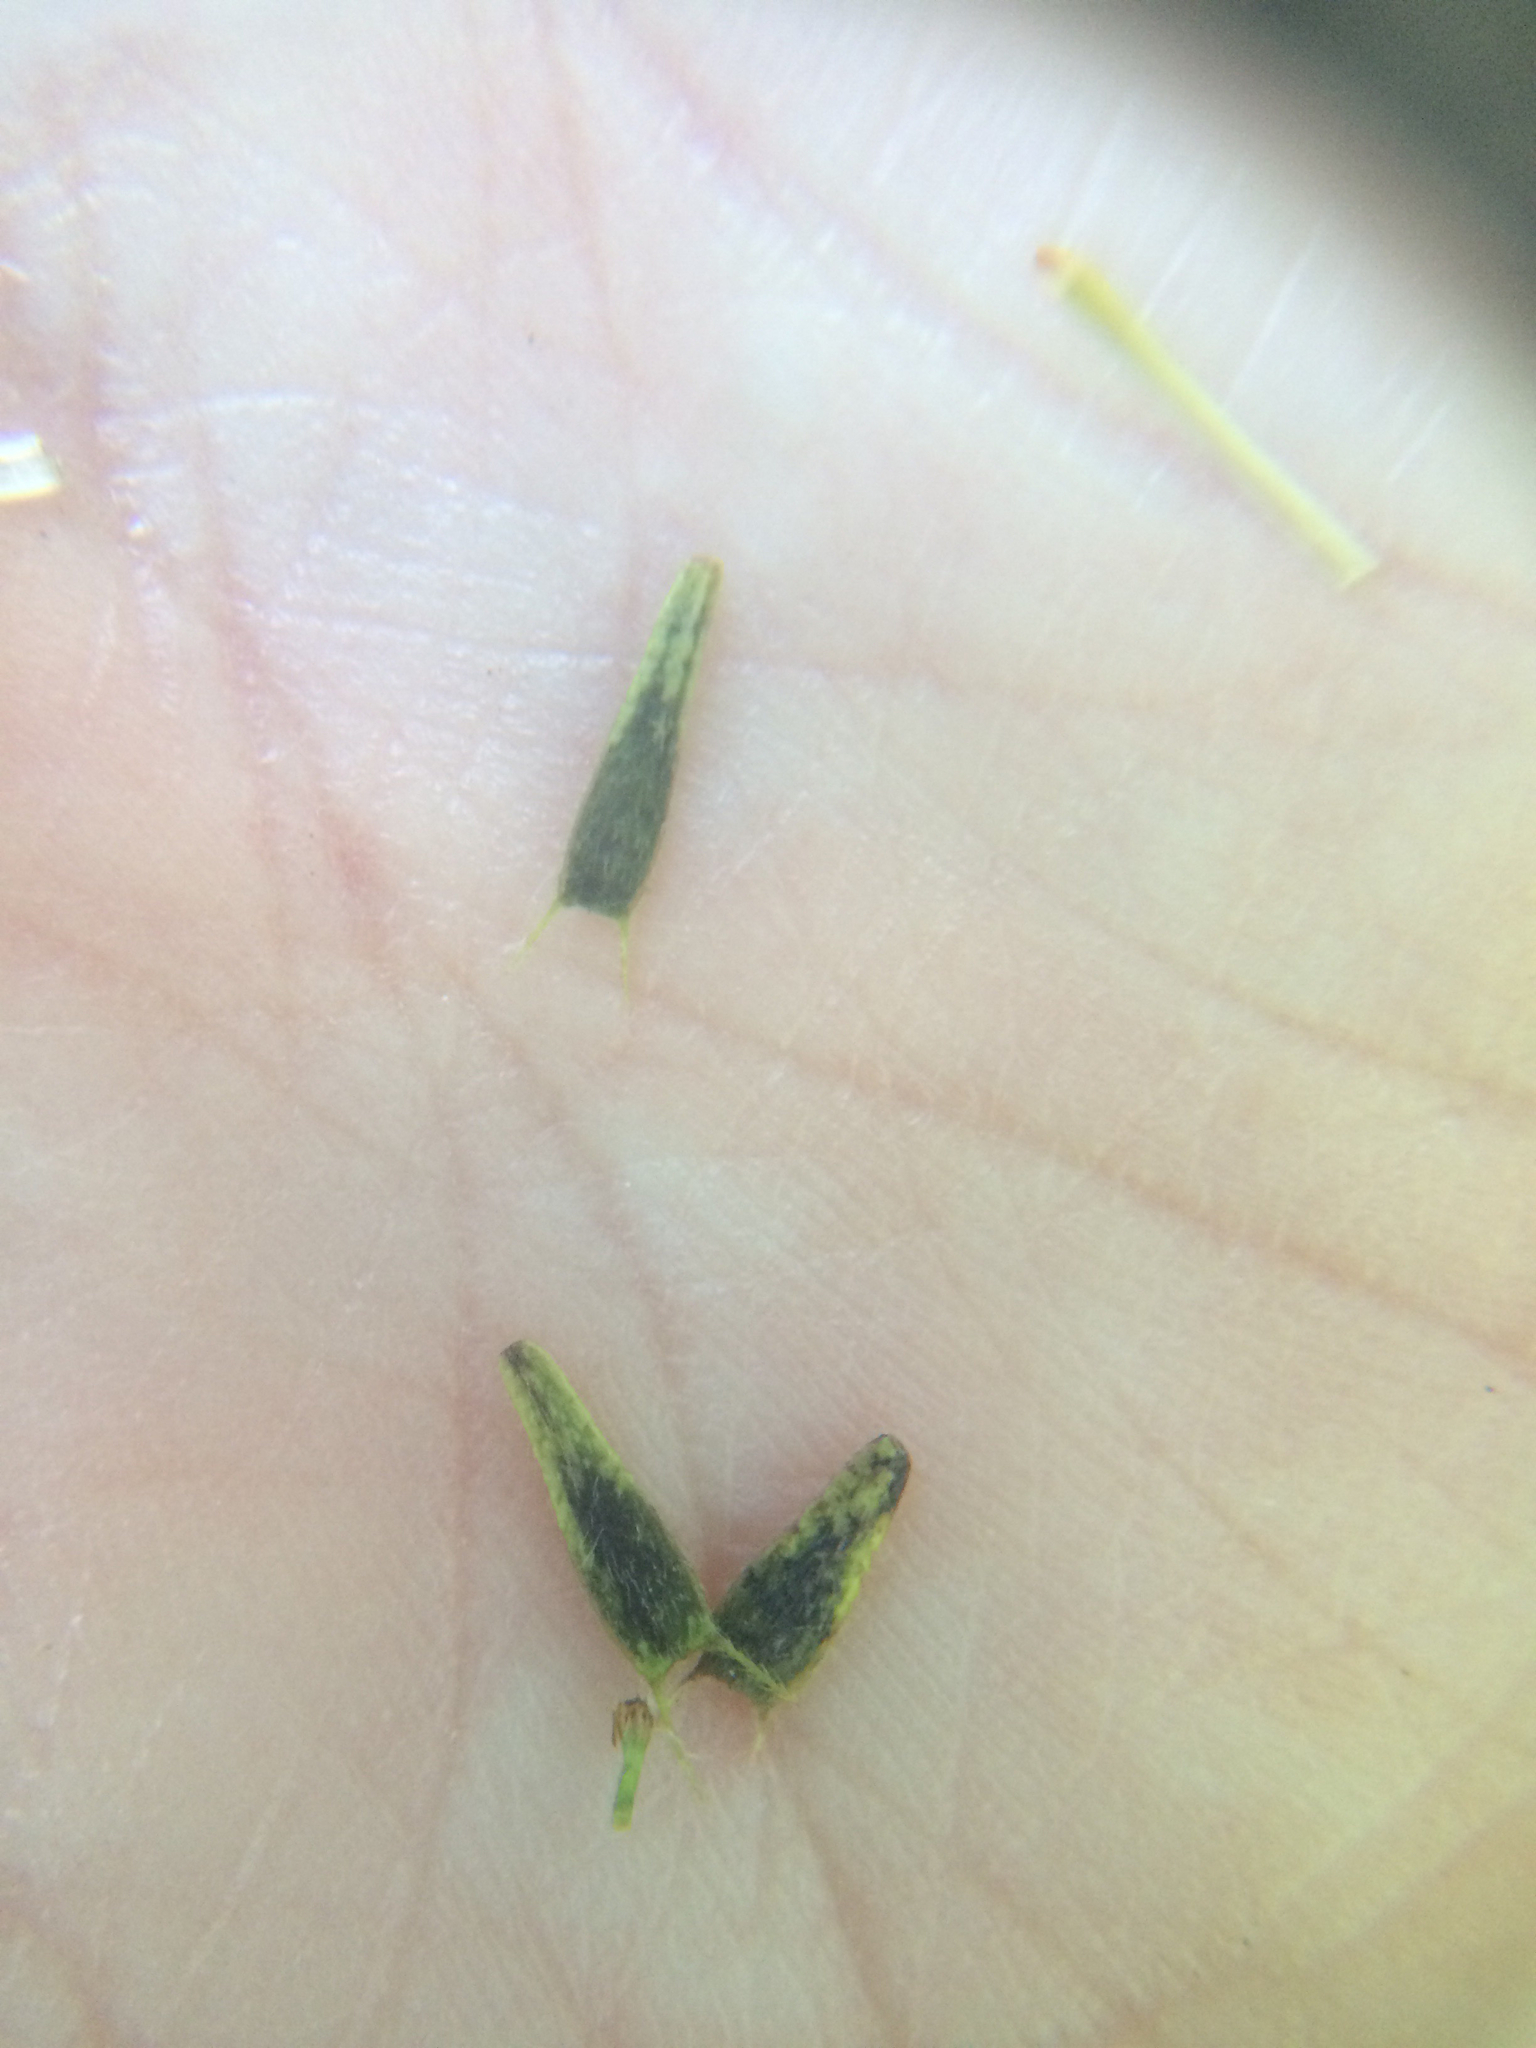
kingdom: Plantae
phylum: Tracheophyta
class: Magnoliopsida
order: Asterales
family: Asteraceae
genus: Bidens
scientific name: Bidens frondosa
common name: Beggarticks
